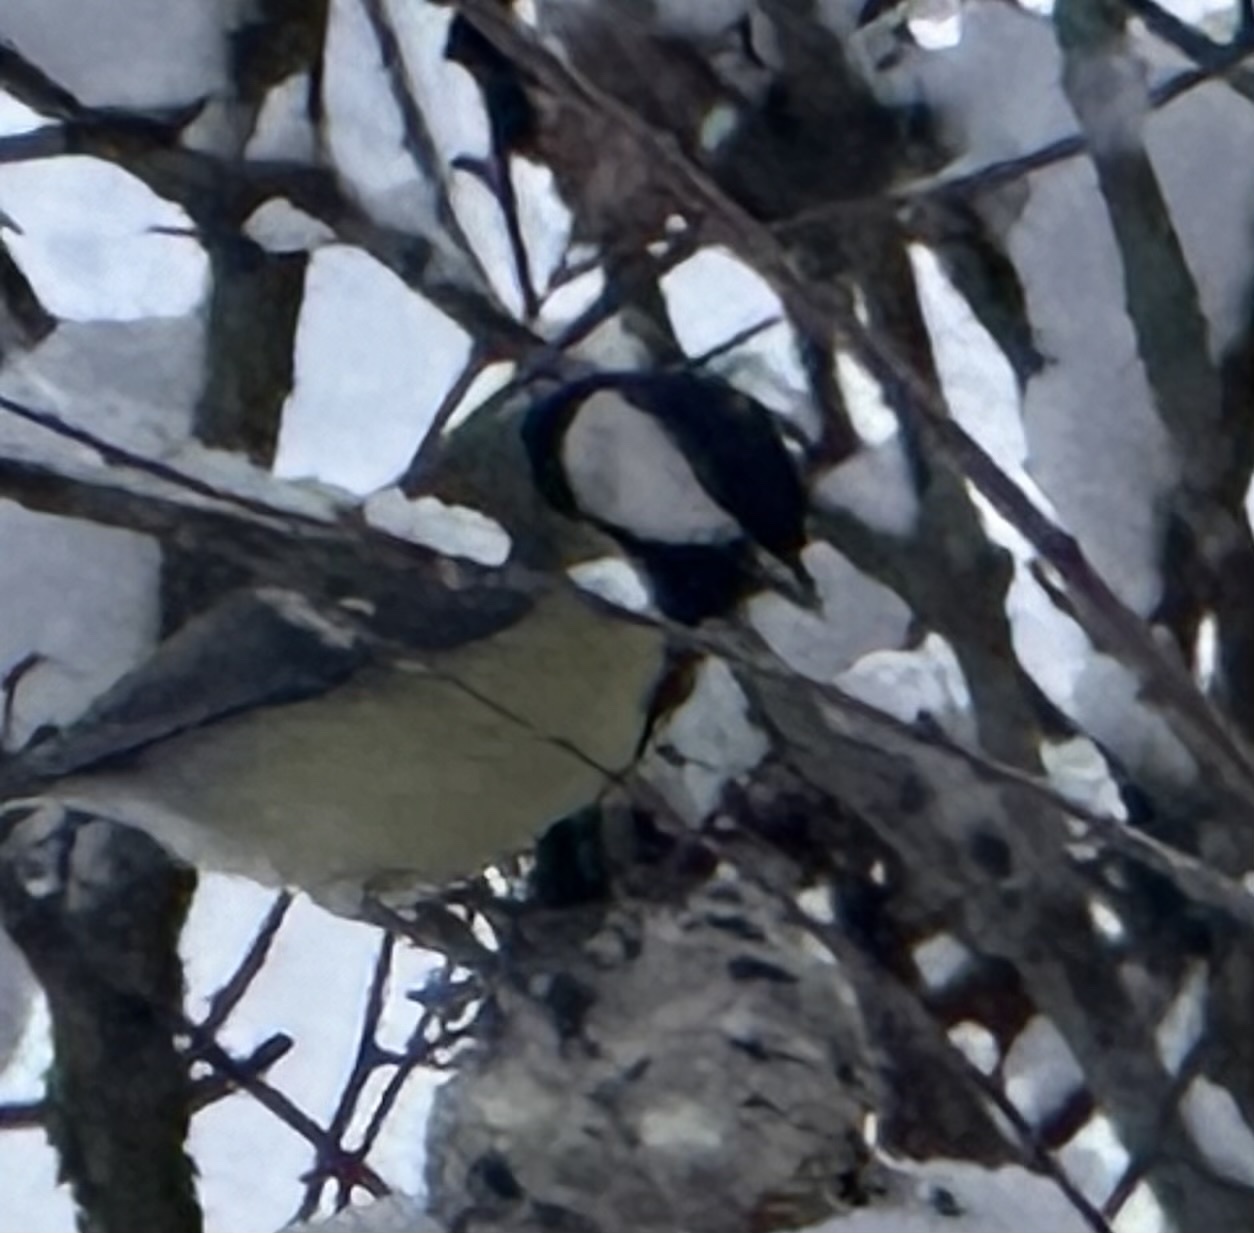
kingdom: Animalia
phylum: Chordata
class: Aves
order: Passeriformes
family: Paridae
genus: Parus
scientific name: Parus major
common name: Great tit
